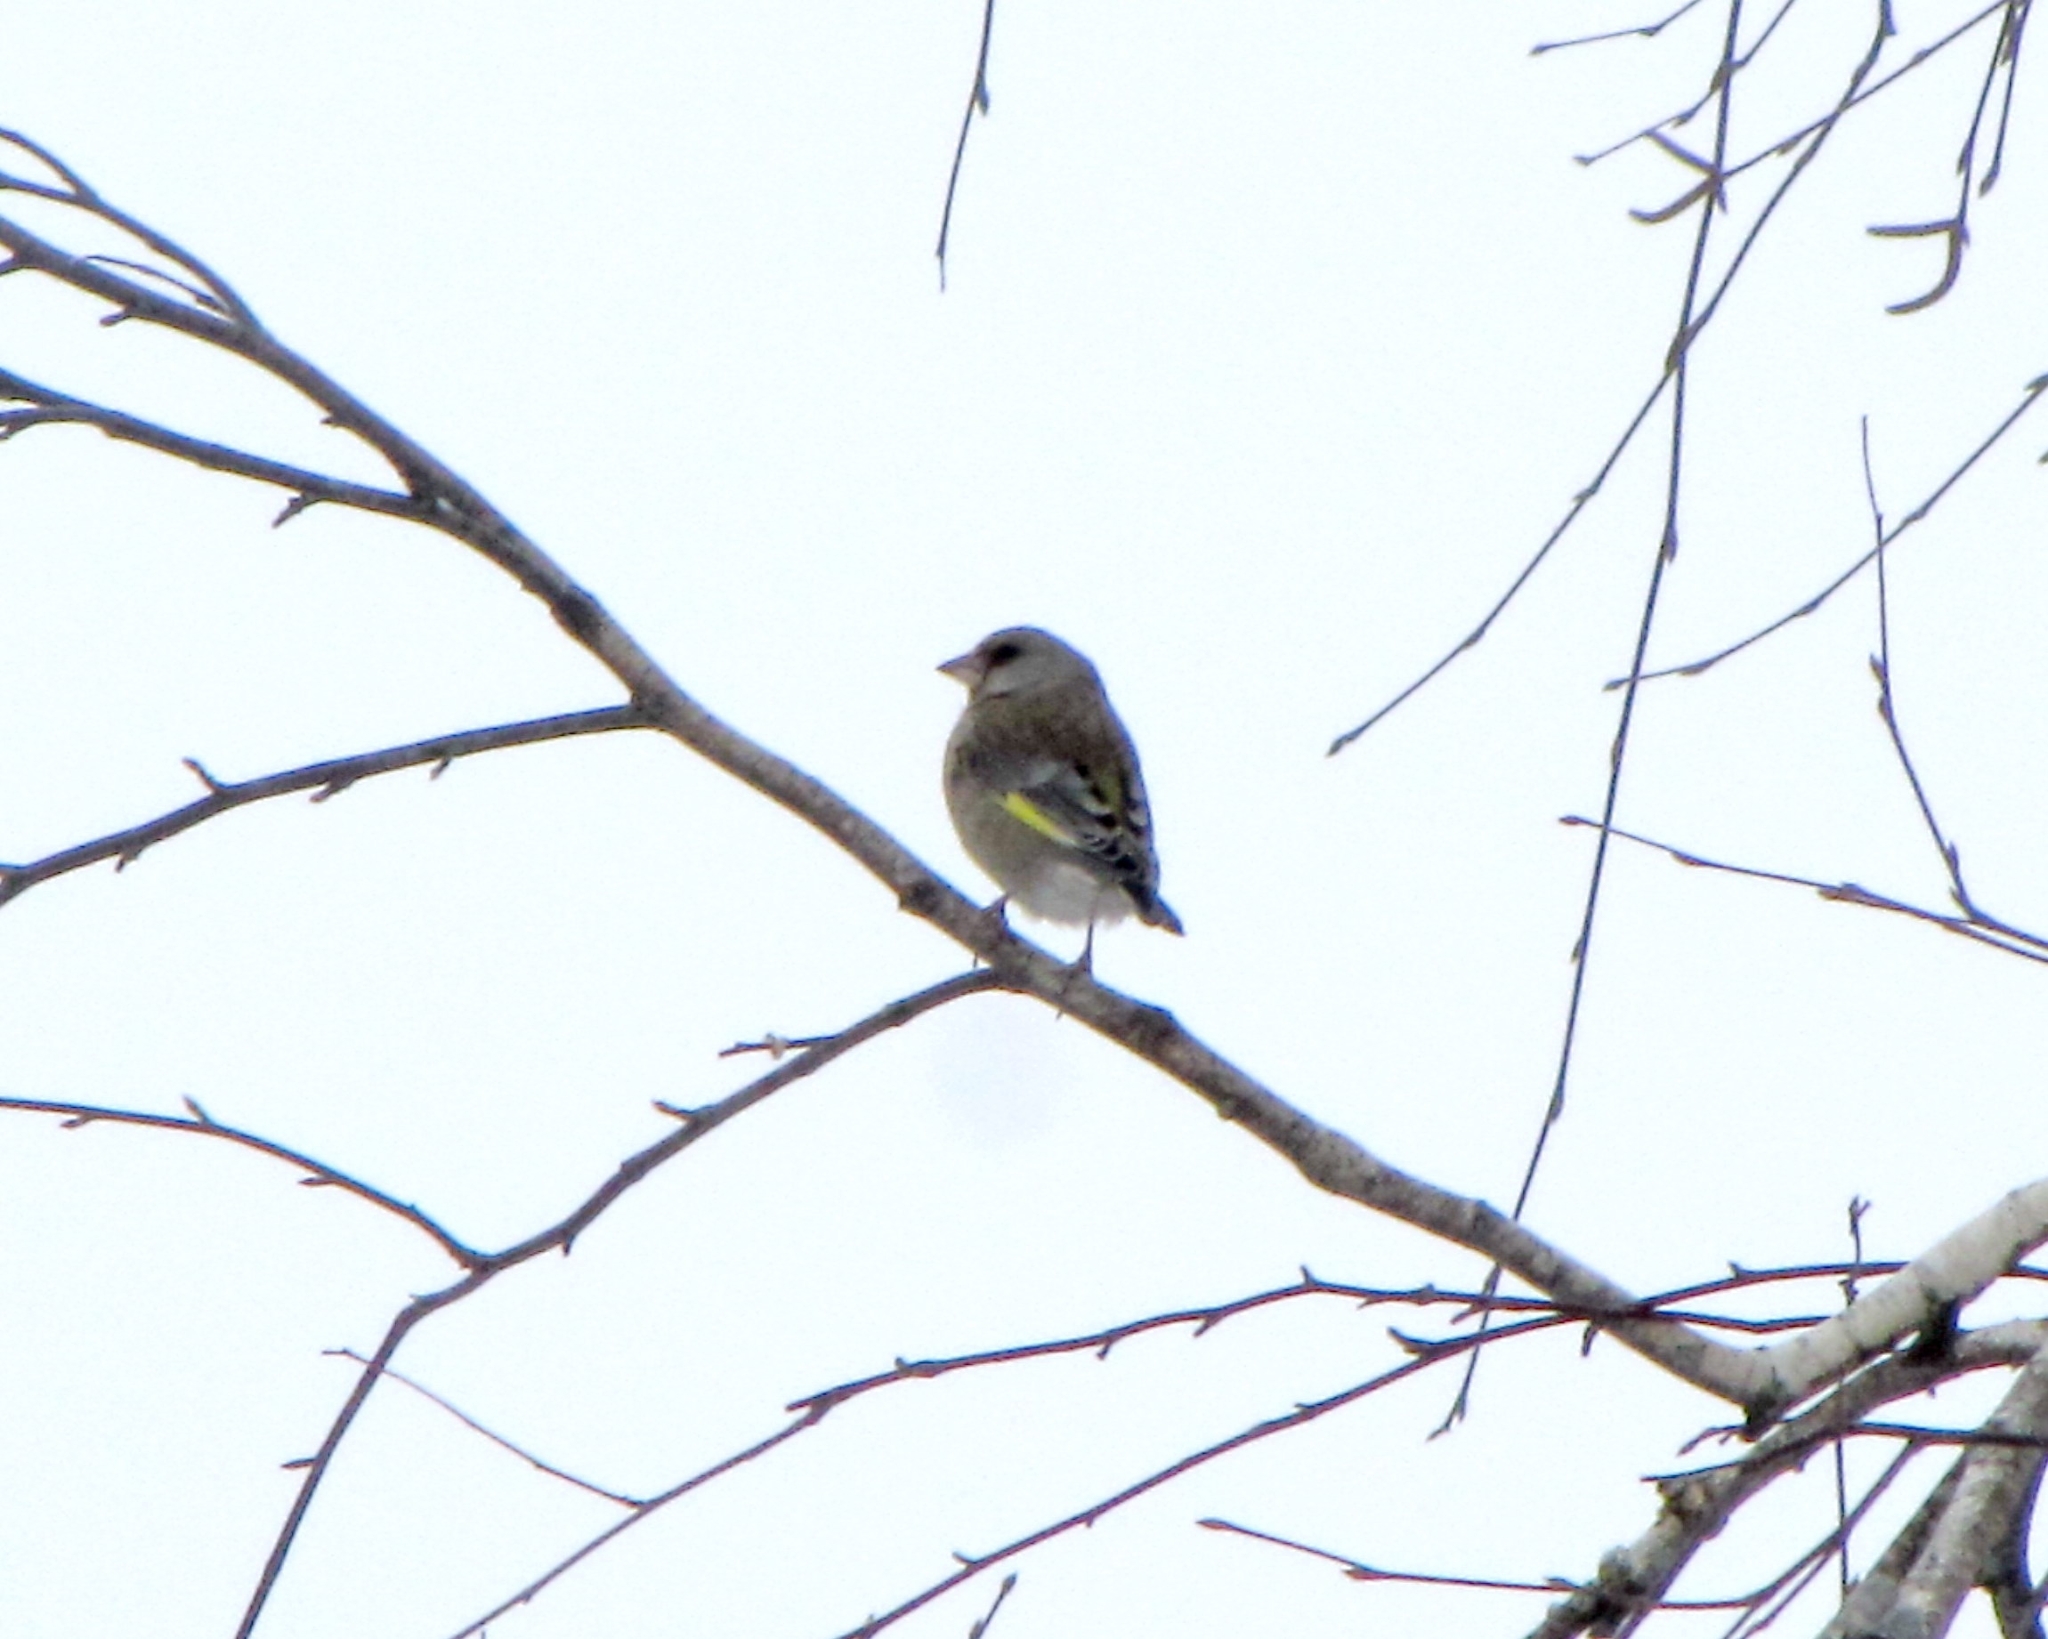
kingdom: Plantae
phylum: Tracheophyta
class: Liliopsida
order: Poales
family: Poaceae
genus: Chloris
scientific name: Chloris chloris
